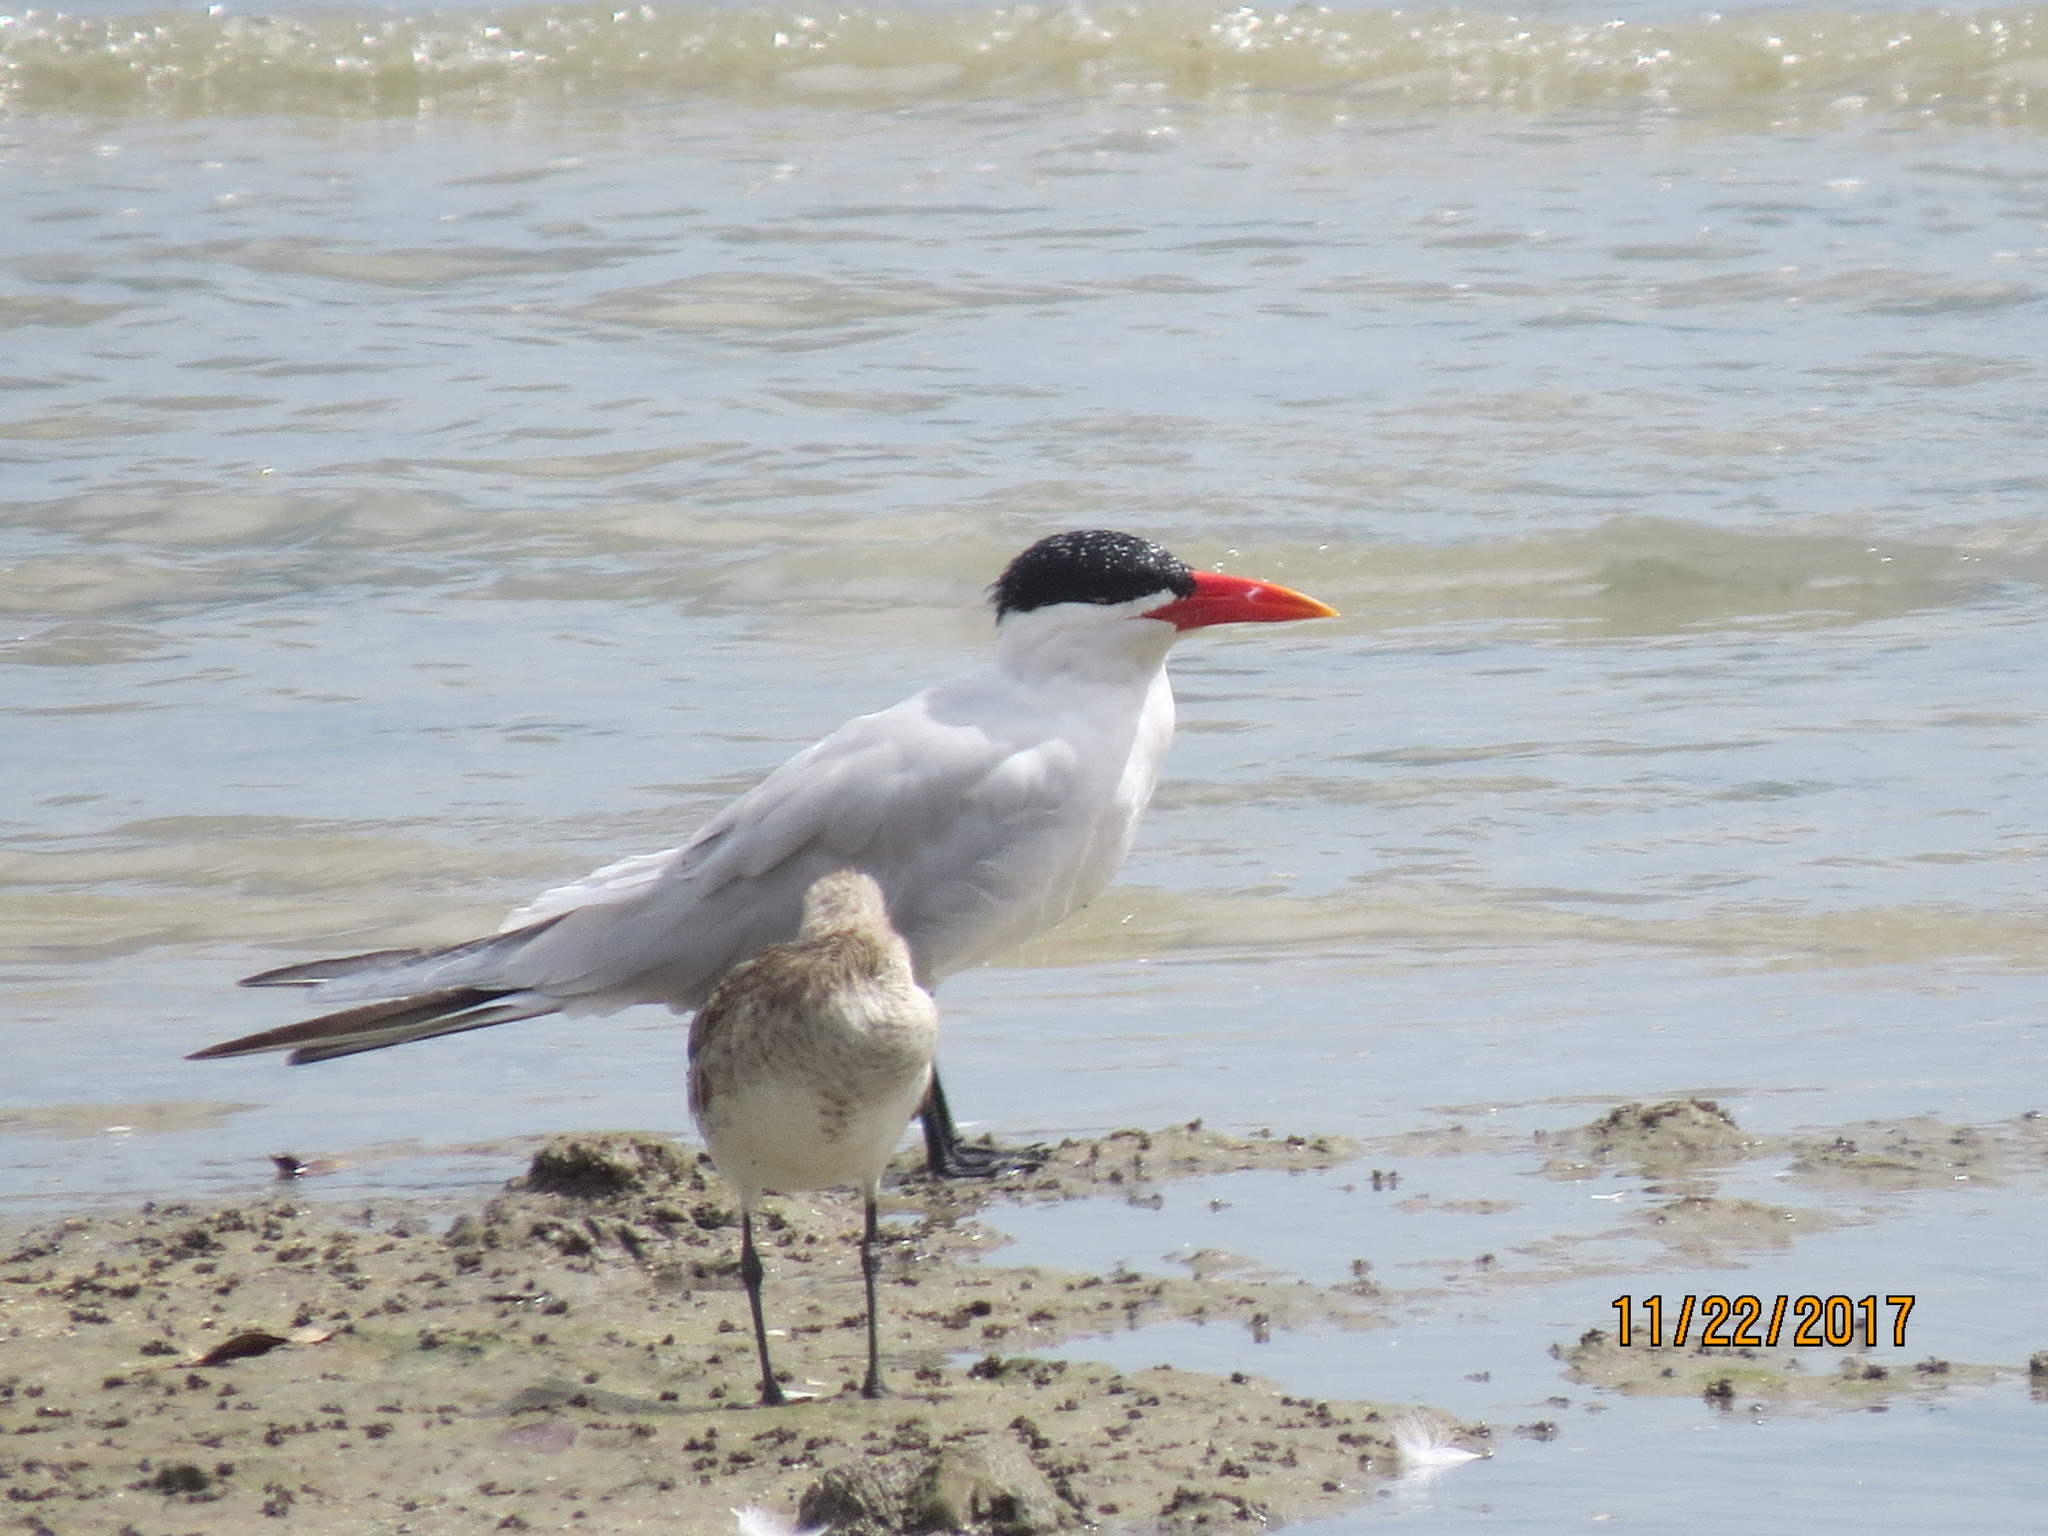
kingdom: Animalia
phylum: Chordata
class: Aves
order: Charadriiformes
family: Laridae
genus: Hydroprogne
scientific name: Hydroprogne caspia
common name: Caspian tern
